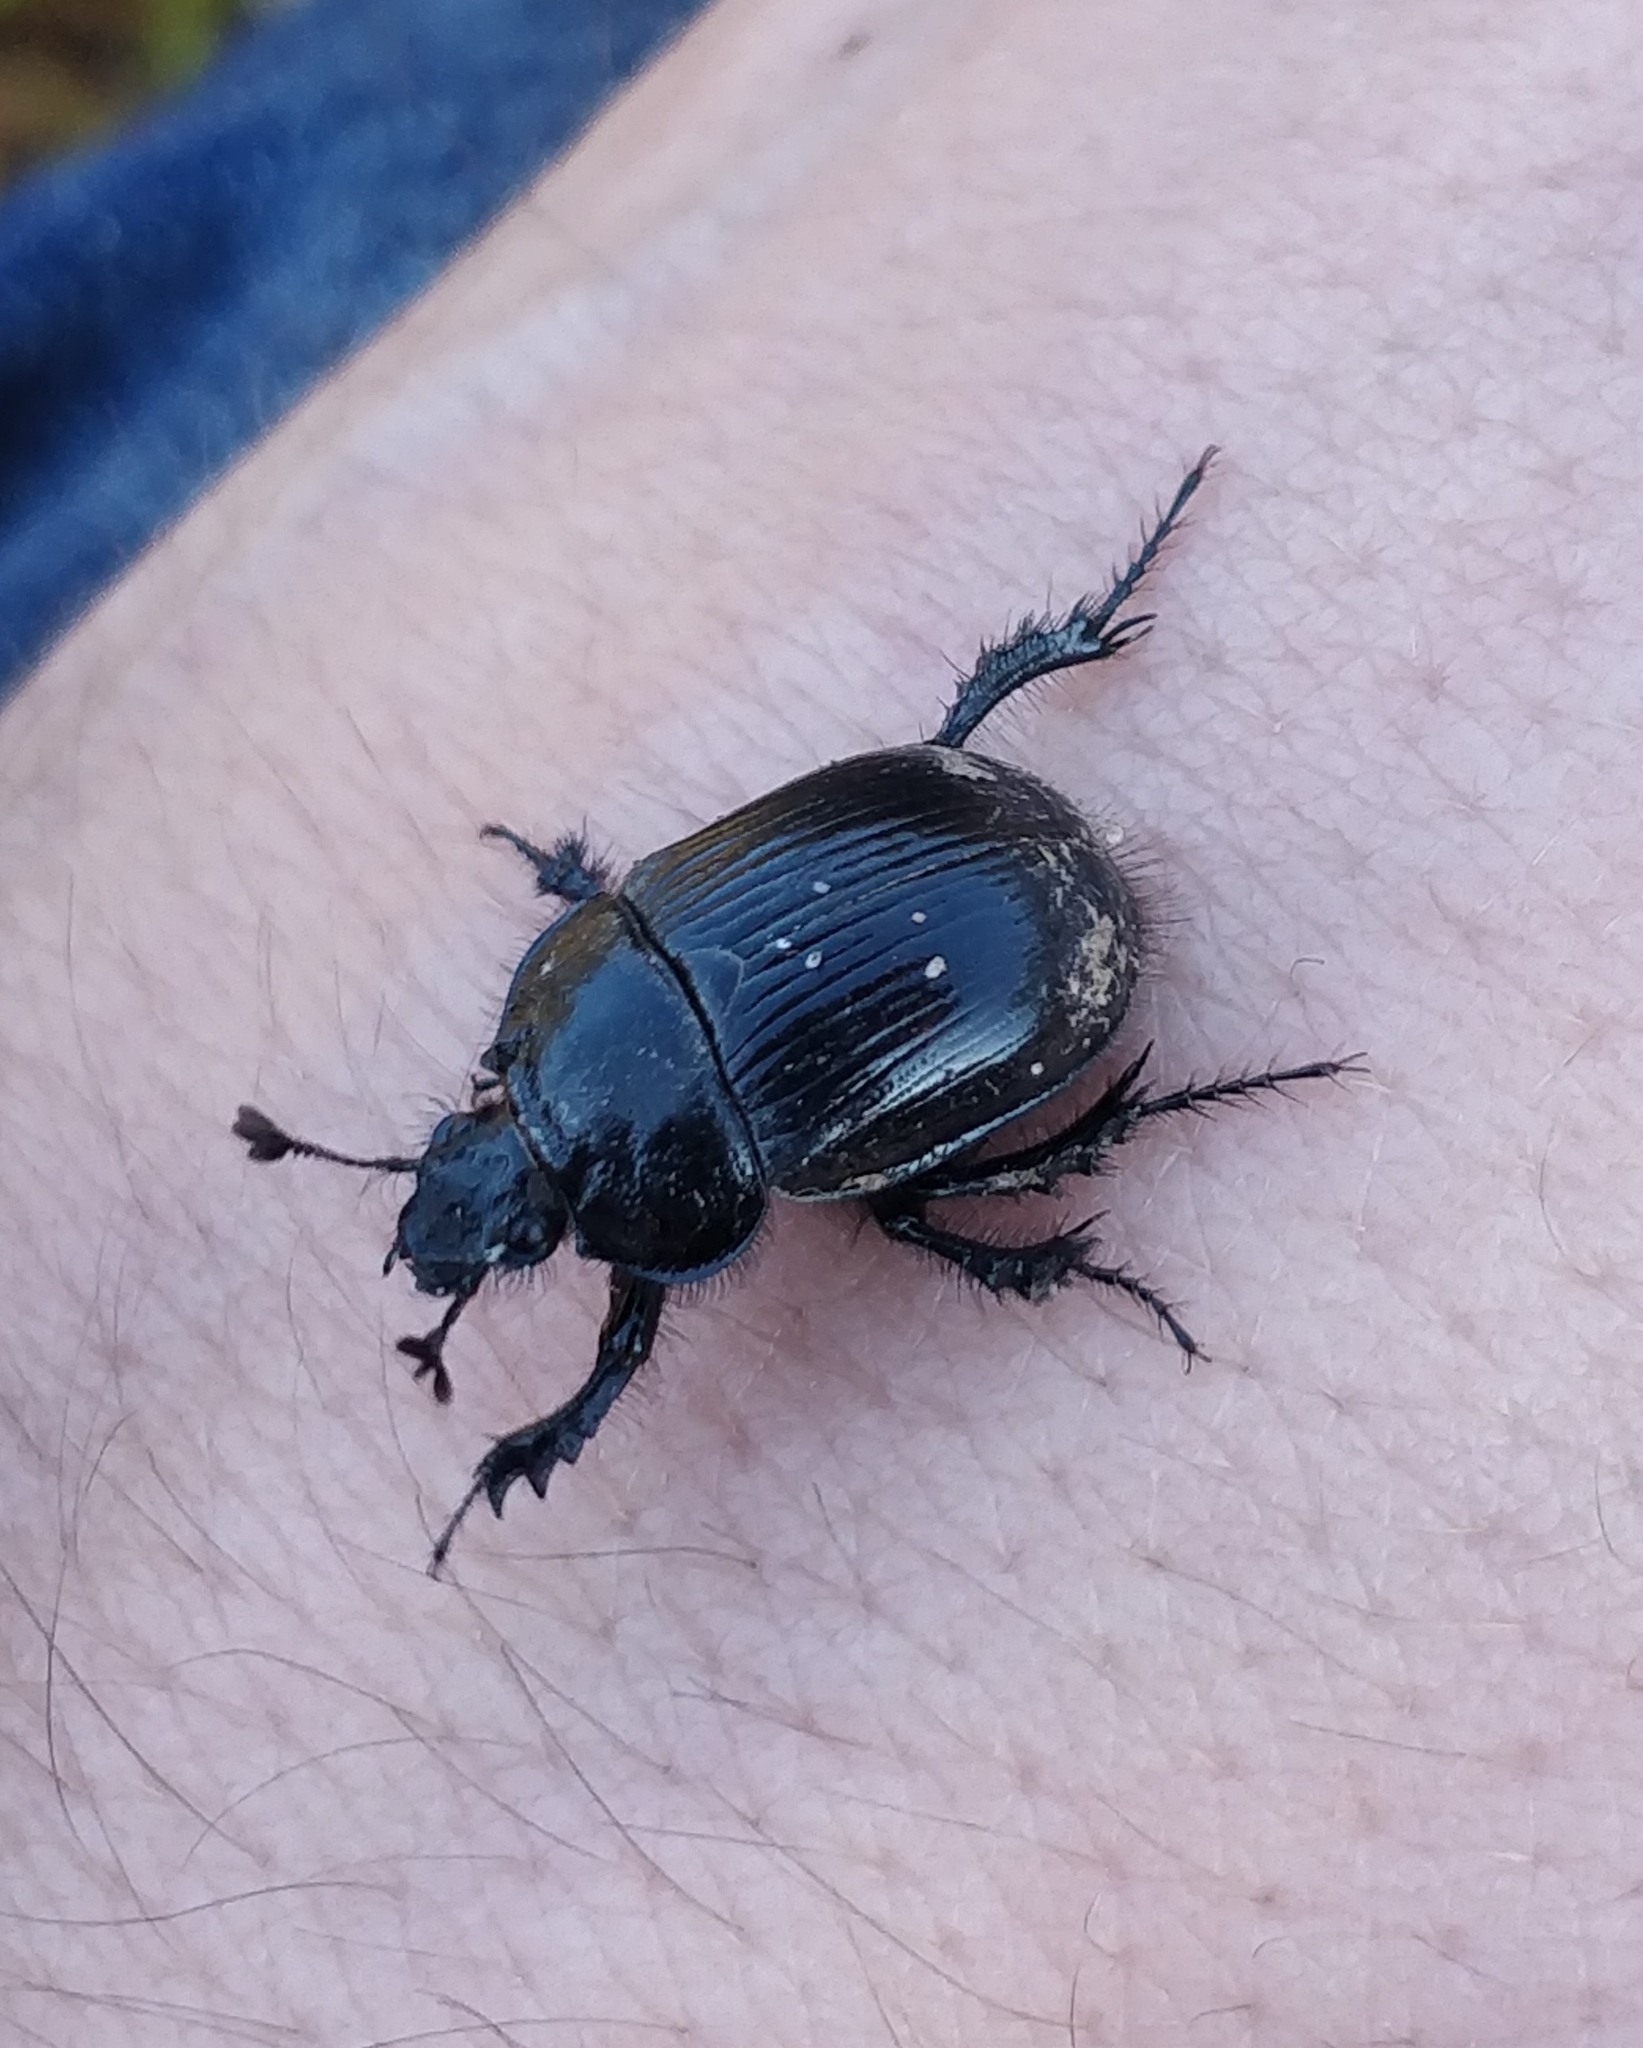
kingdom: Animalia
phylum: Arthropoda
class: Insecta
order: Coleoptera
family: Geotrupidae
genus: Typhaeus
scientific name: Typhaeus typhoeus
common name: Minotaur beetle
